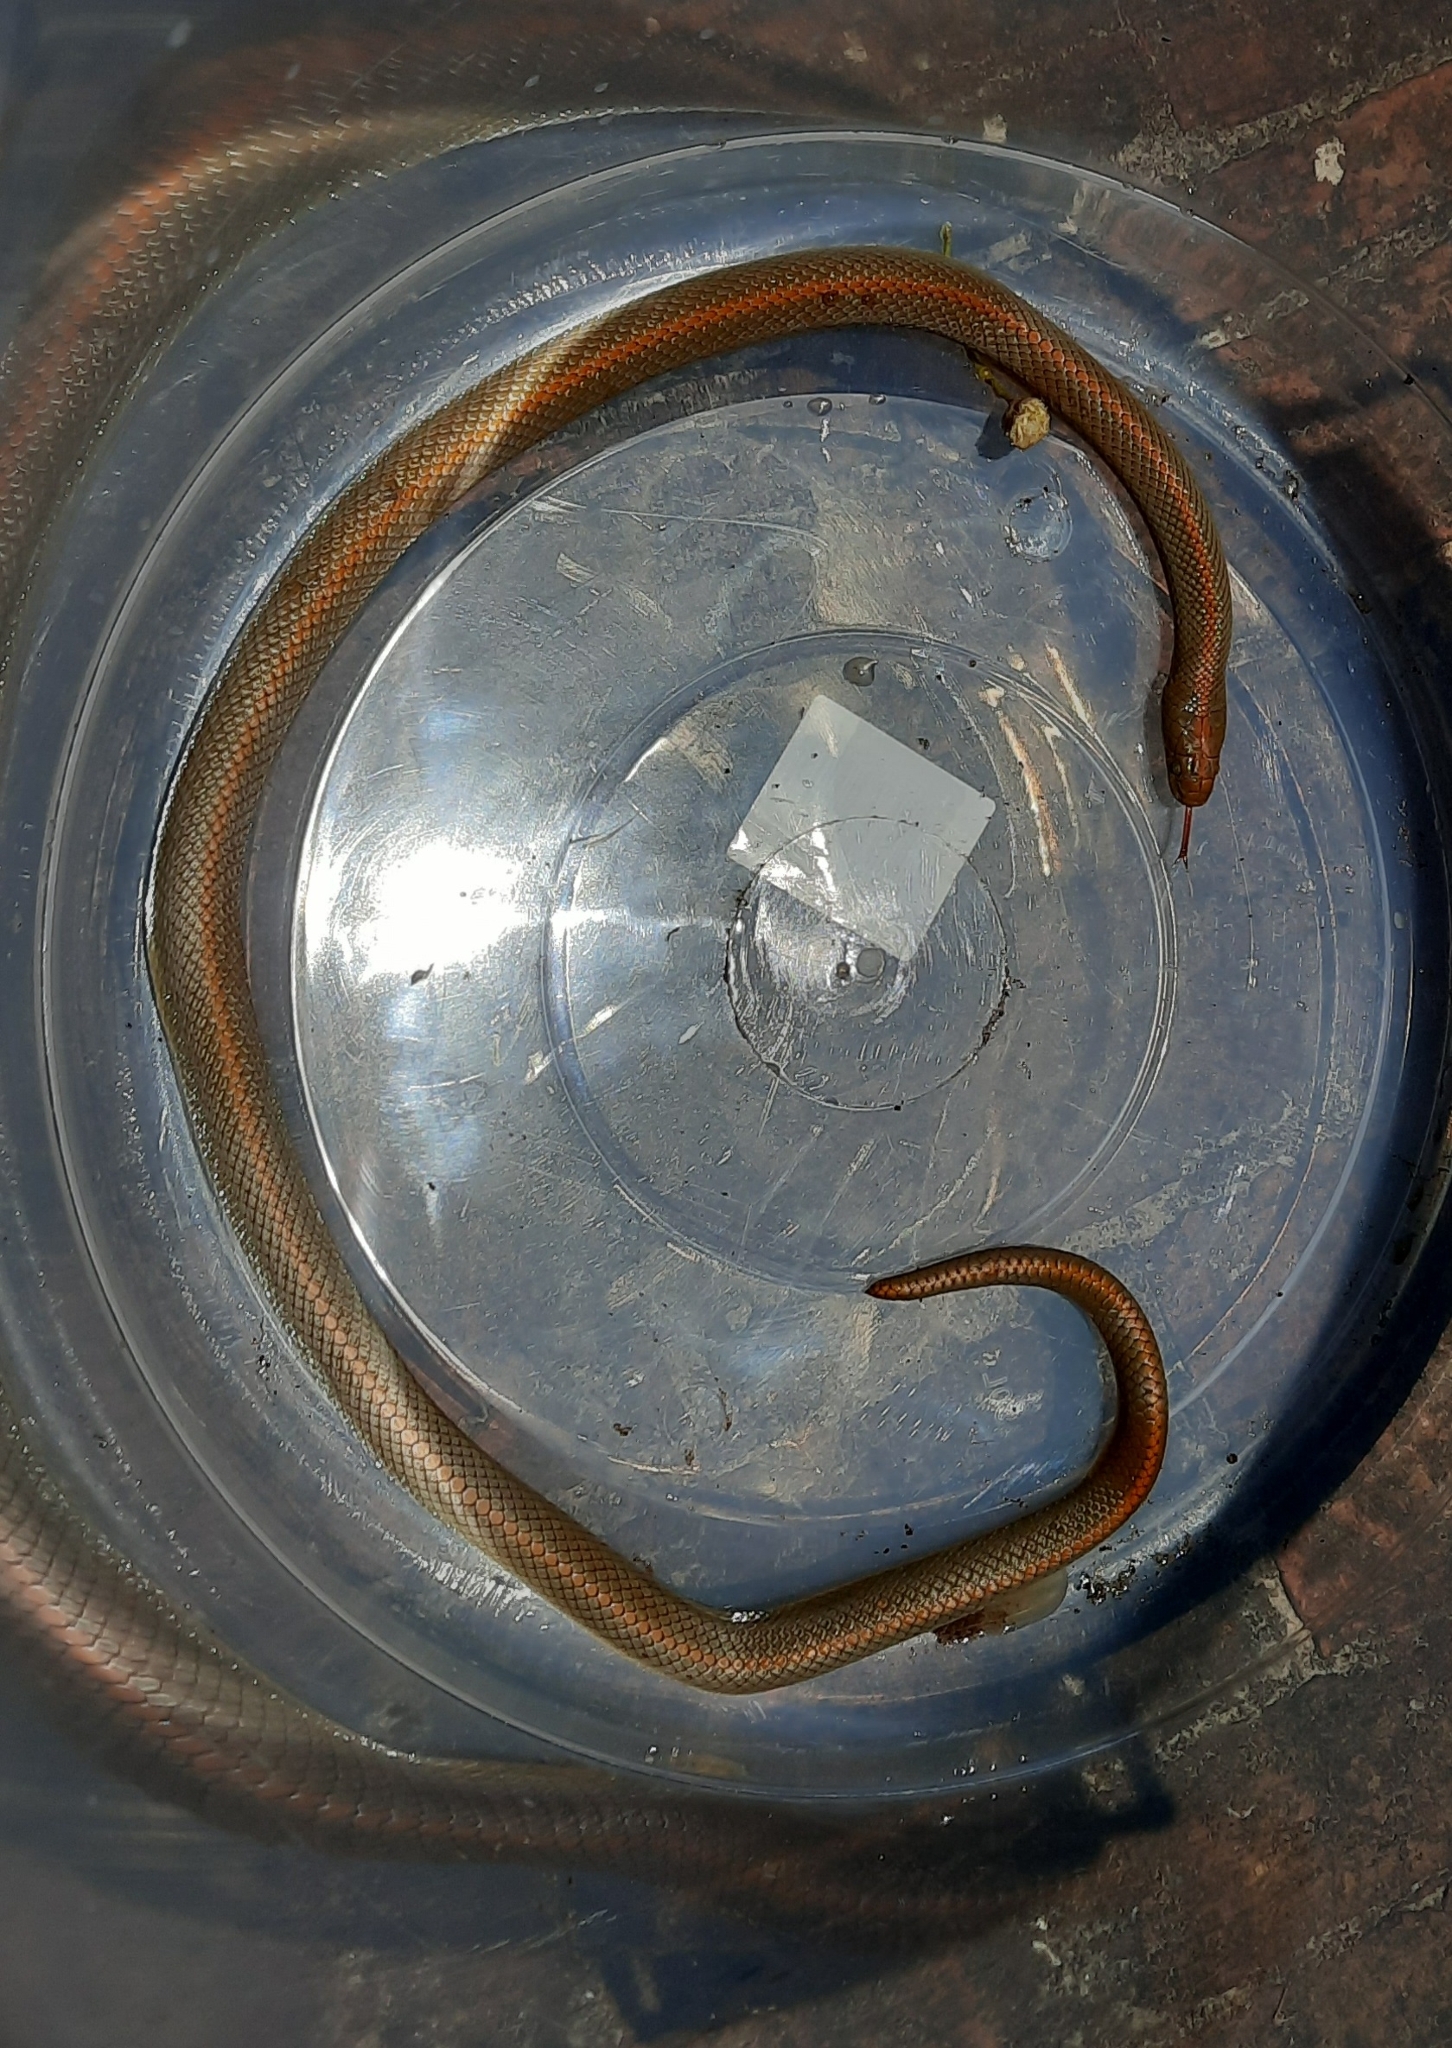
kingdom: Animalia
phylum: Chordata
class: Squamata
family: Lamprophiidae
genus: Lamprophis
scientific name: Lamprophis aurora
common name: Aurora house snake
